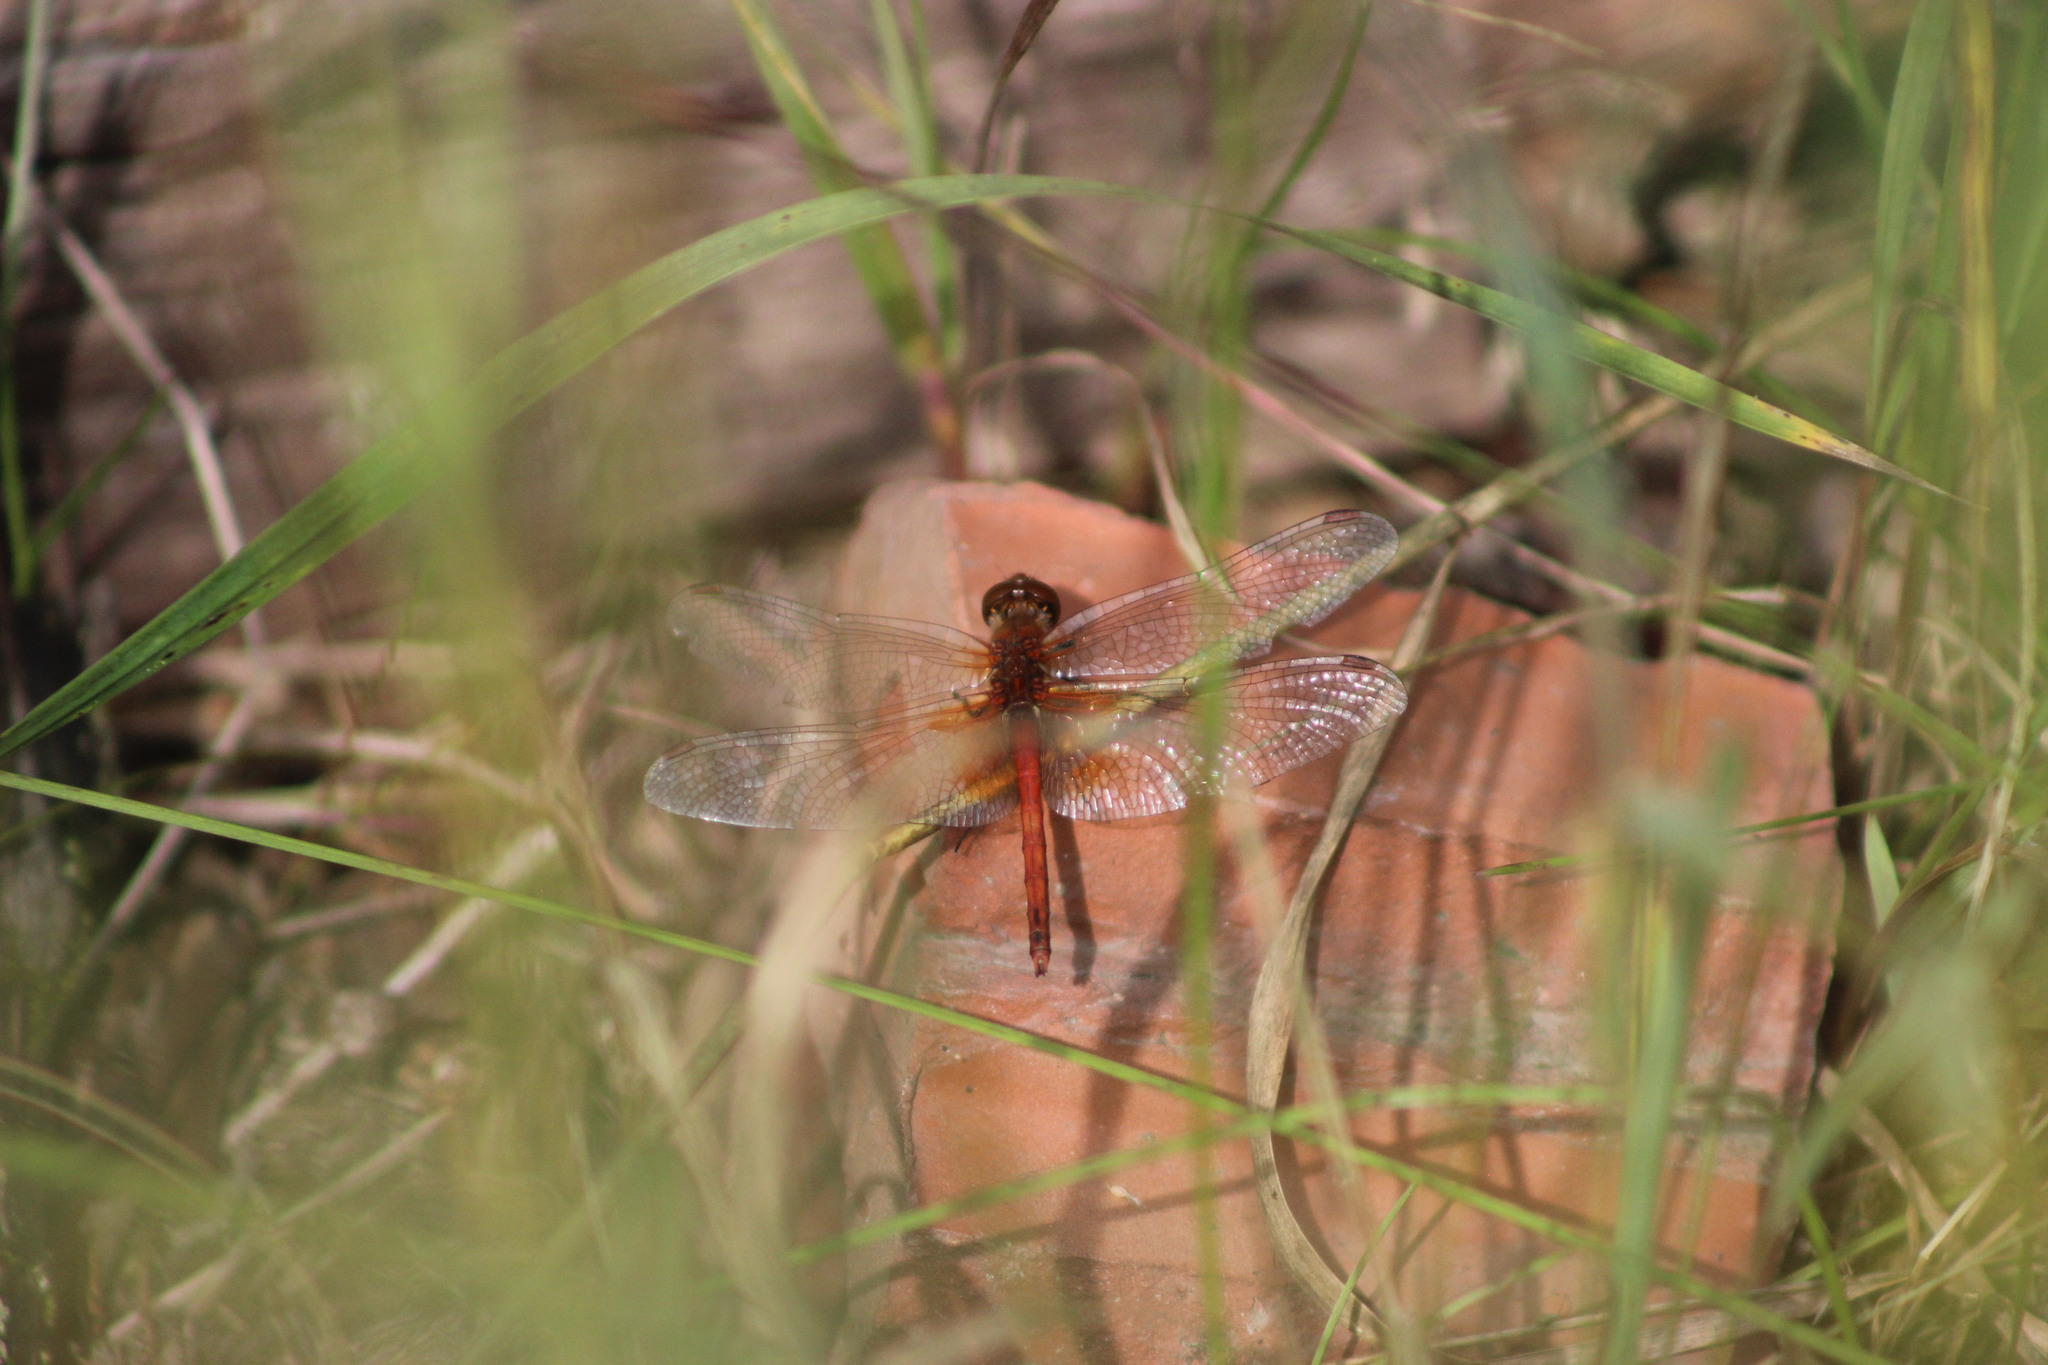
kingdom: Animalia
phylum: Arthropoda
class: Insecta
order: Odonata
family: Libellulidae
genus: Sympetrum
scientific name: Sympetrum flaveolum
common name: Yellow-winged darter
